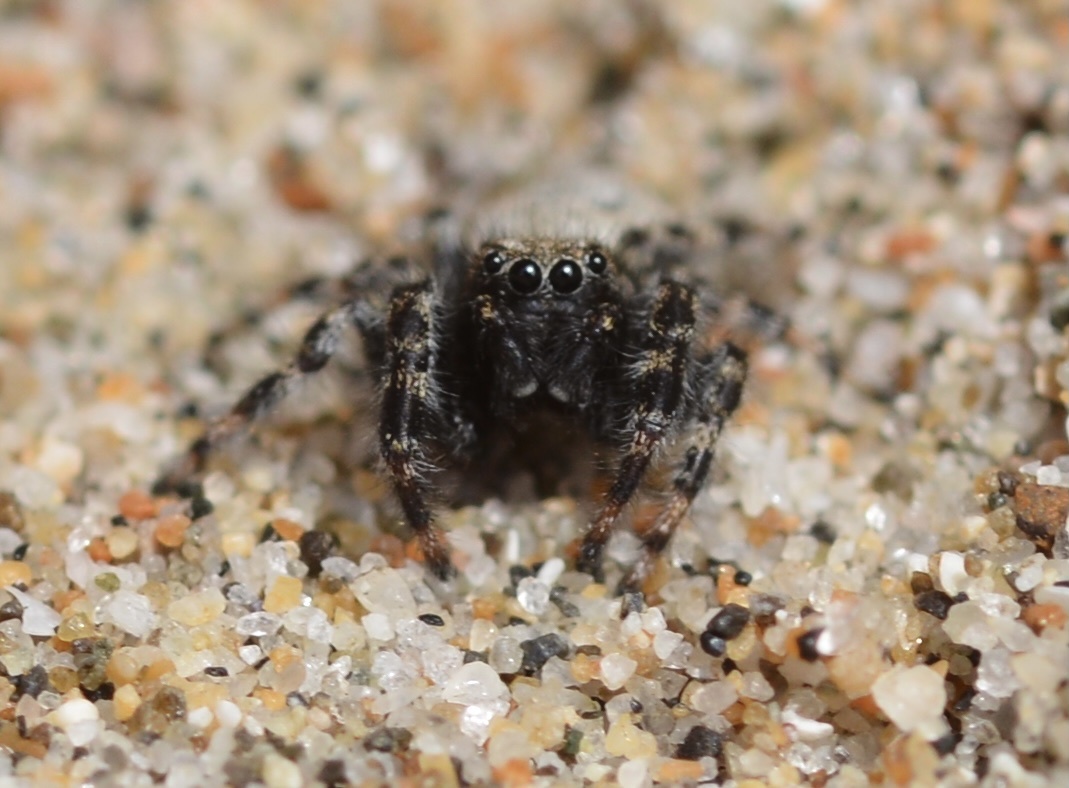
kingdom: Animalia
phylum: Arthropoda
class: Arachnida
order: Araneae
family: Salticidae
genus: Terralonus
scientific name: Terralonus californicus
